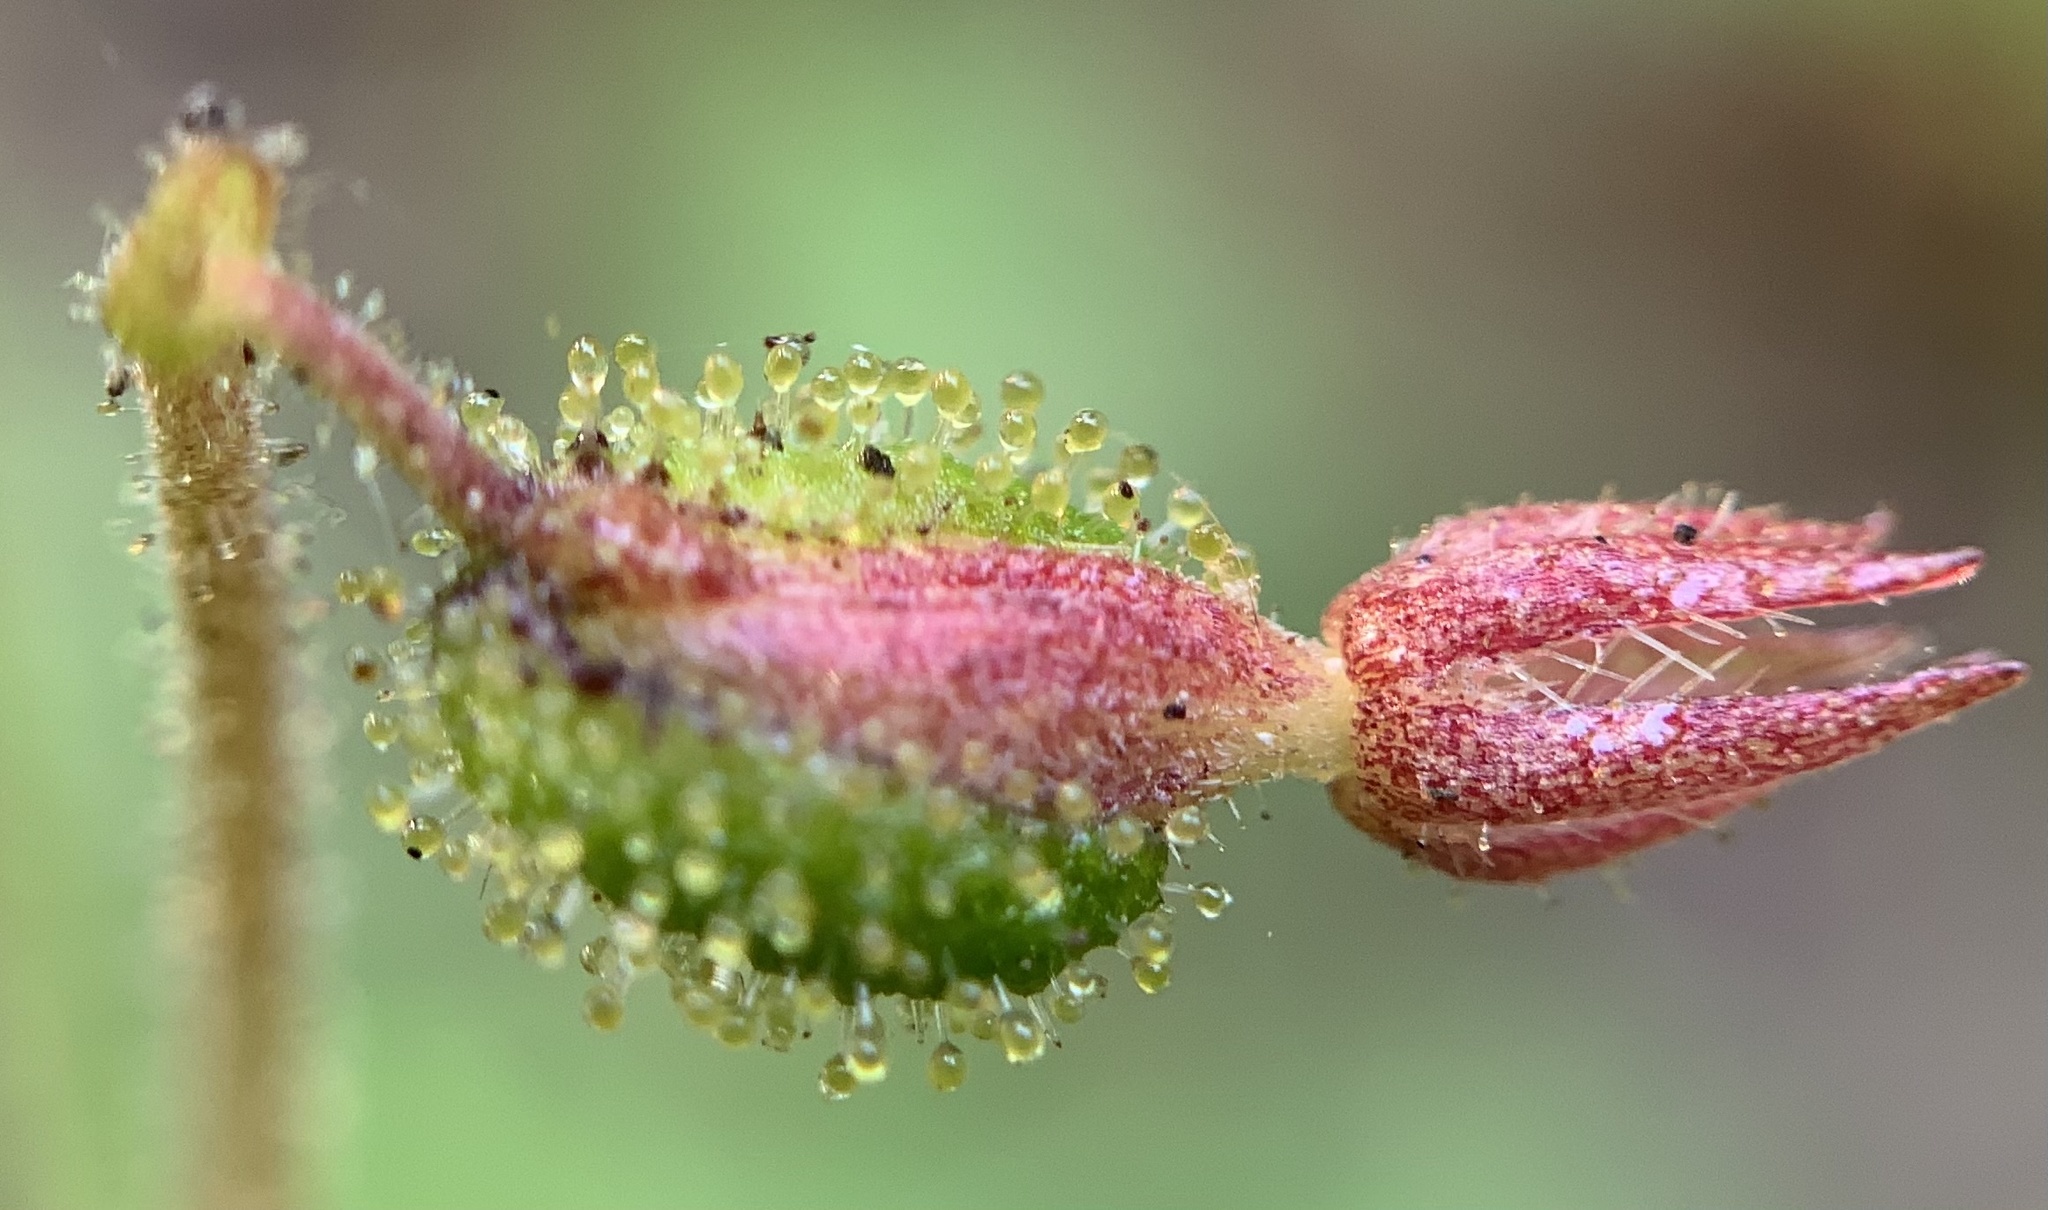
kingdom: Plantae
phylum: Tracheophyta
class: Magnoliopsida
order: Dipsacales
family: Caprifoliaceae
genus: Linnaea
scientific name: Linnaea borealis
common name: Twinflower
